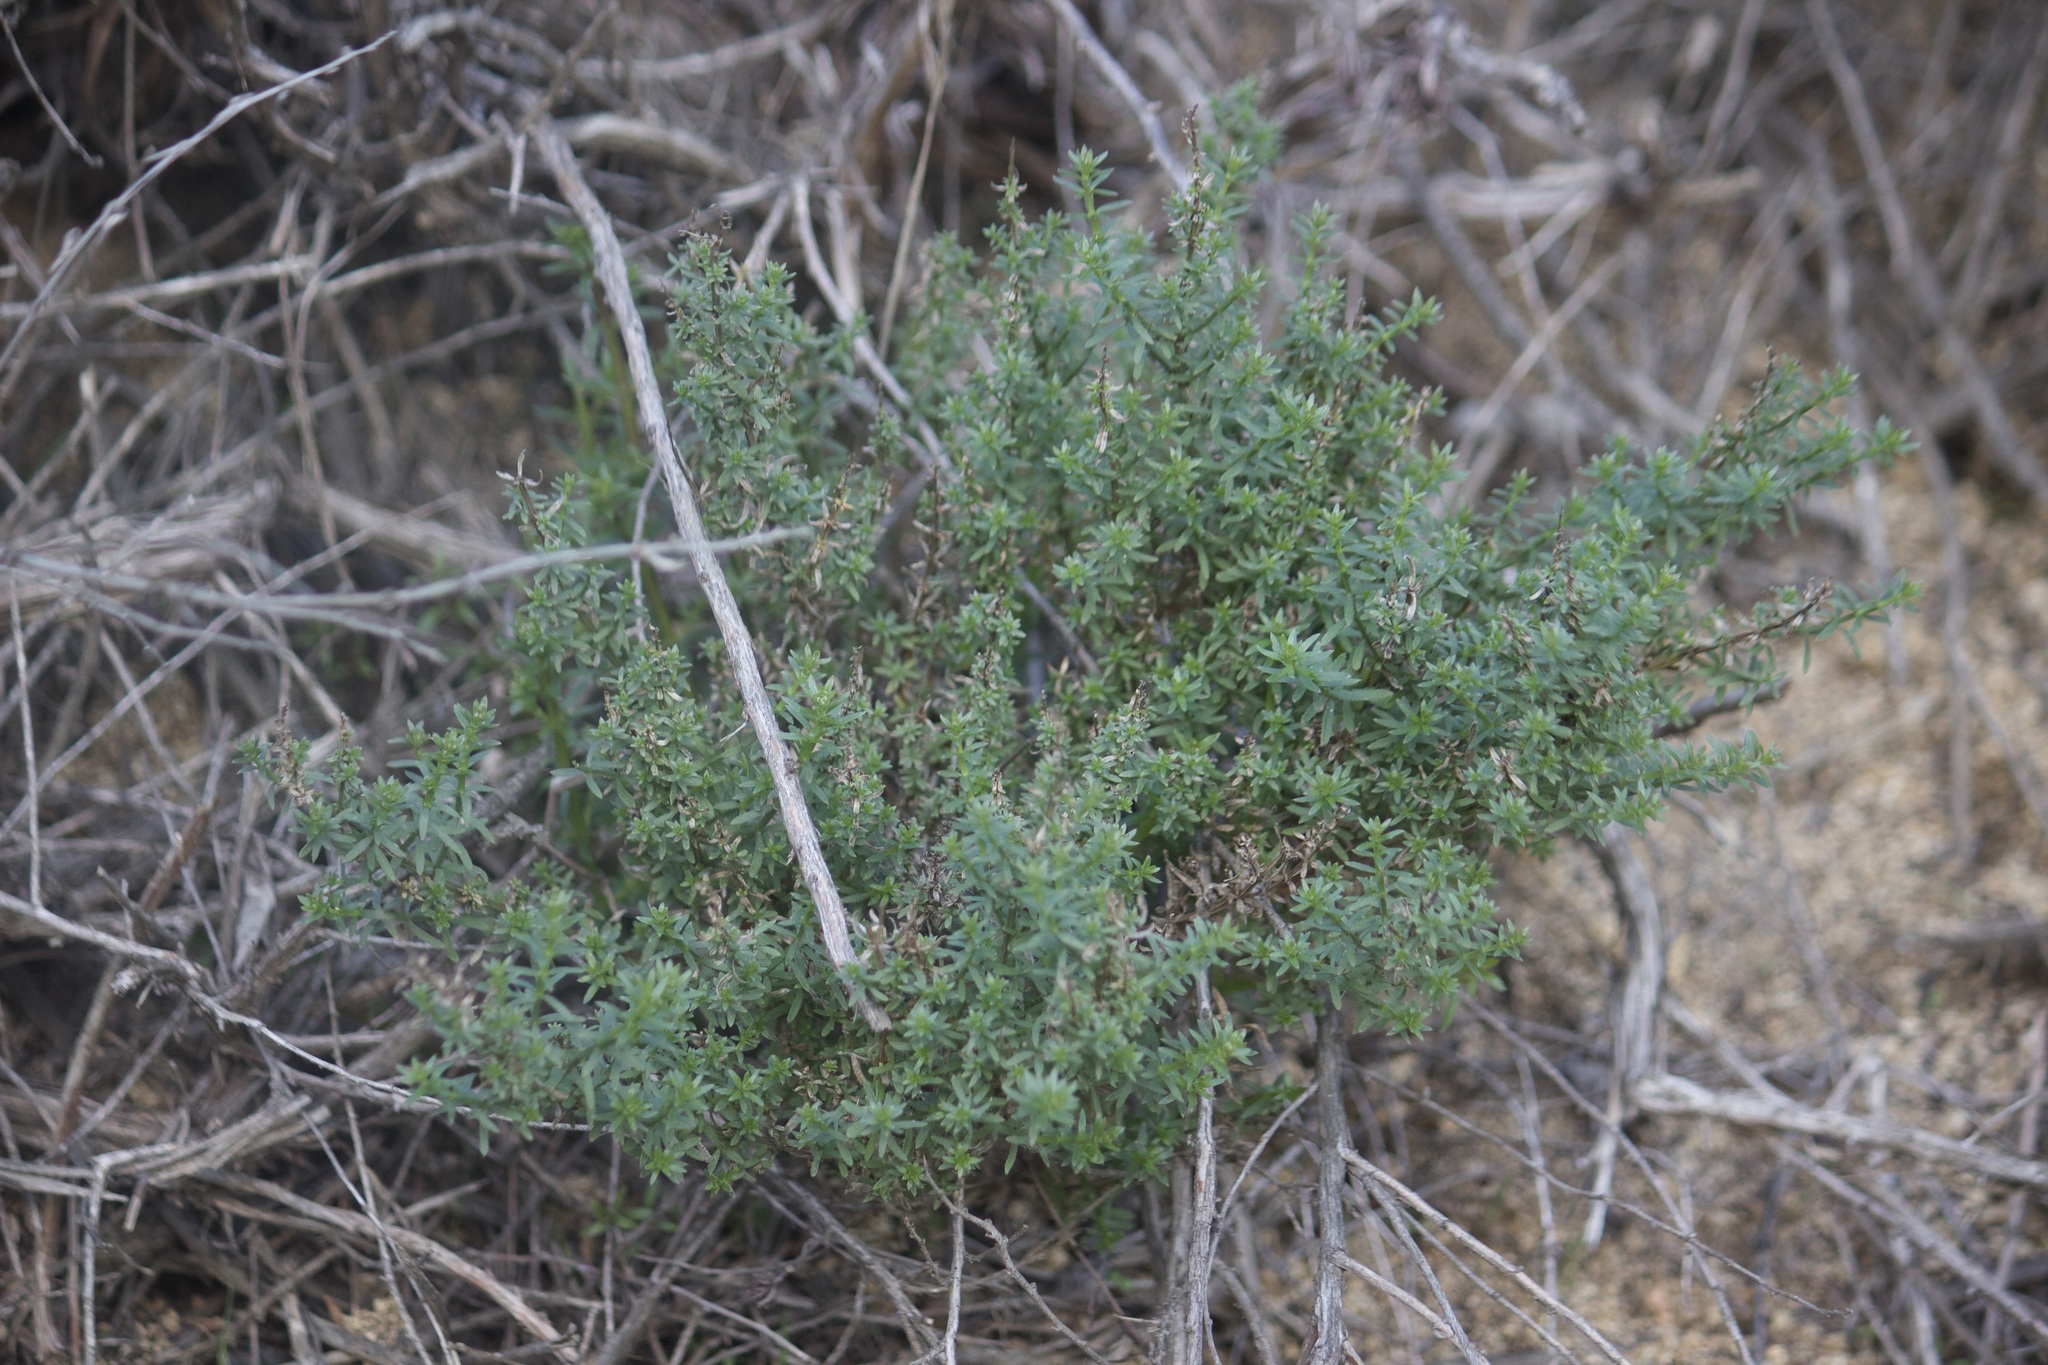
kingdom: Plantae
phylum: Tracheophyta
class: Magnoliopsida
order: Gentianales
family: Rubiaceae
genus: Galium
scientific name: Galium angustifolium
